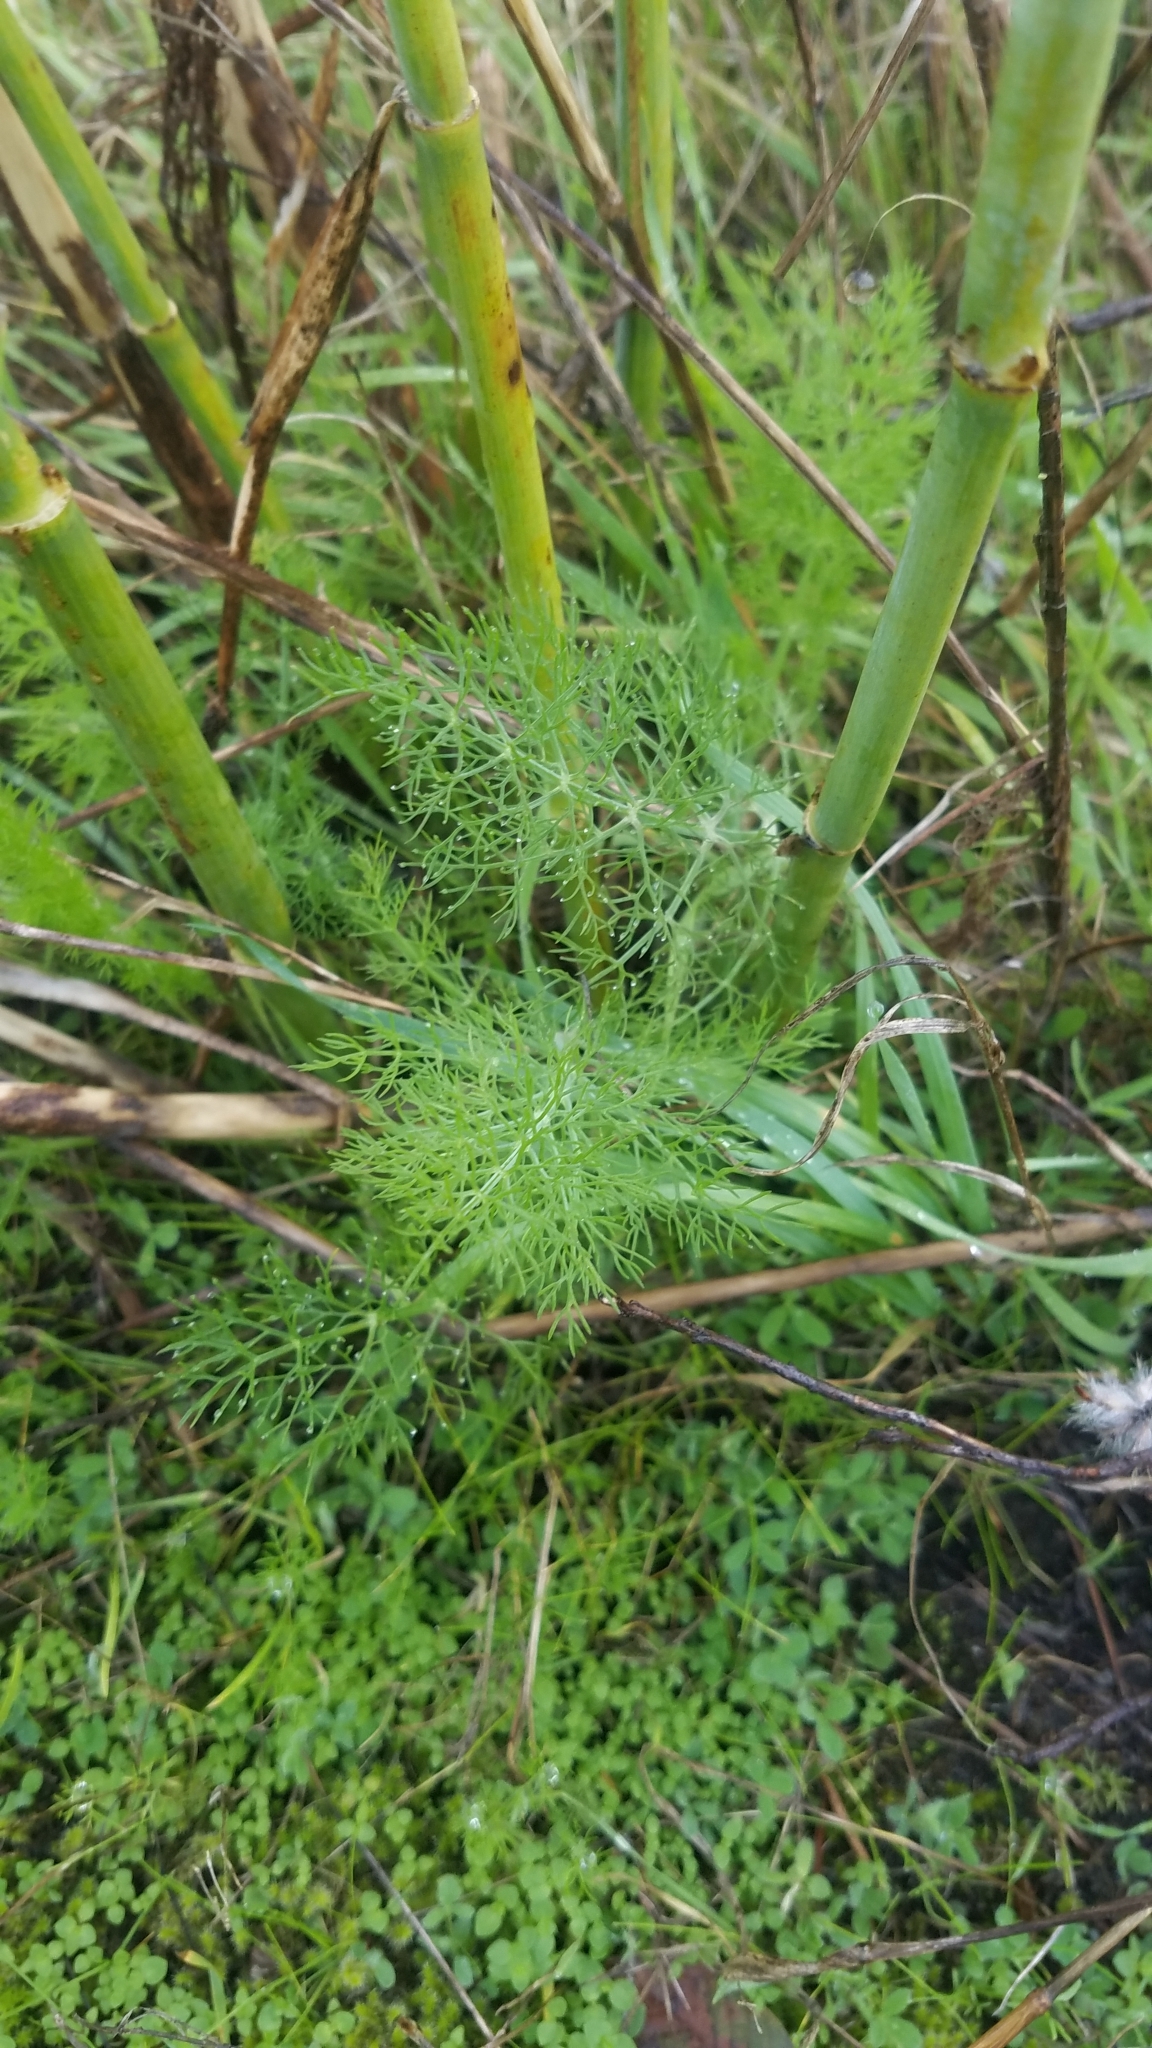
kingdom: Plantae
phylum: Tracheophyta
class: Magnoliopsida
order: Apiales
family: Apiaceae
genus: Foeniculum
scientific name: Foeniculum vulgare
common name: Fennel
